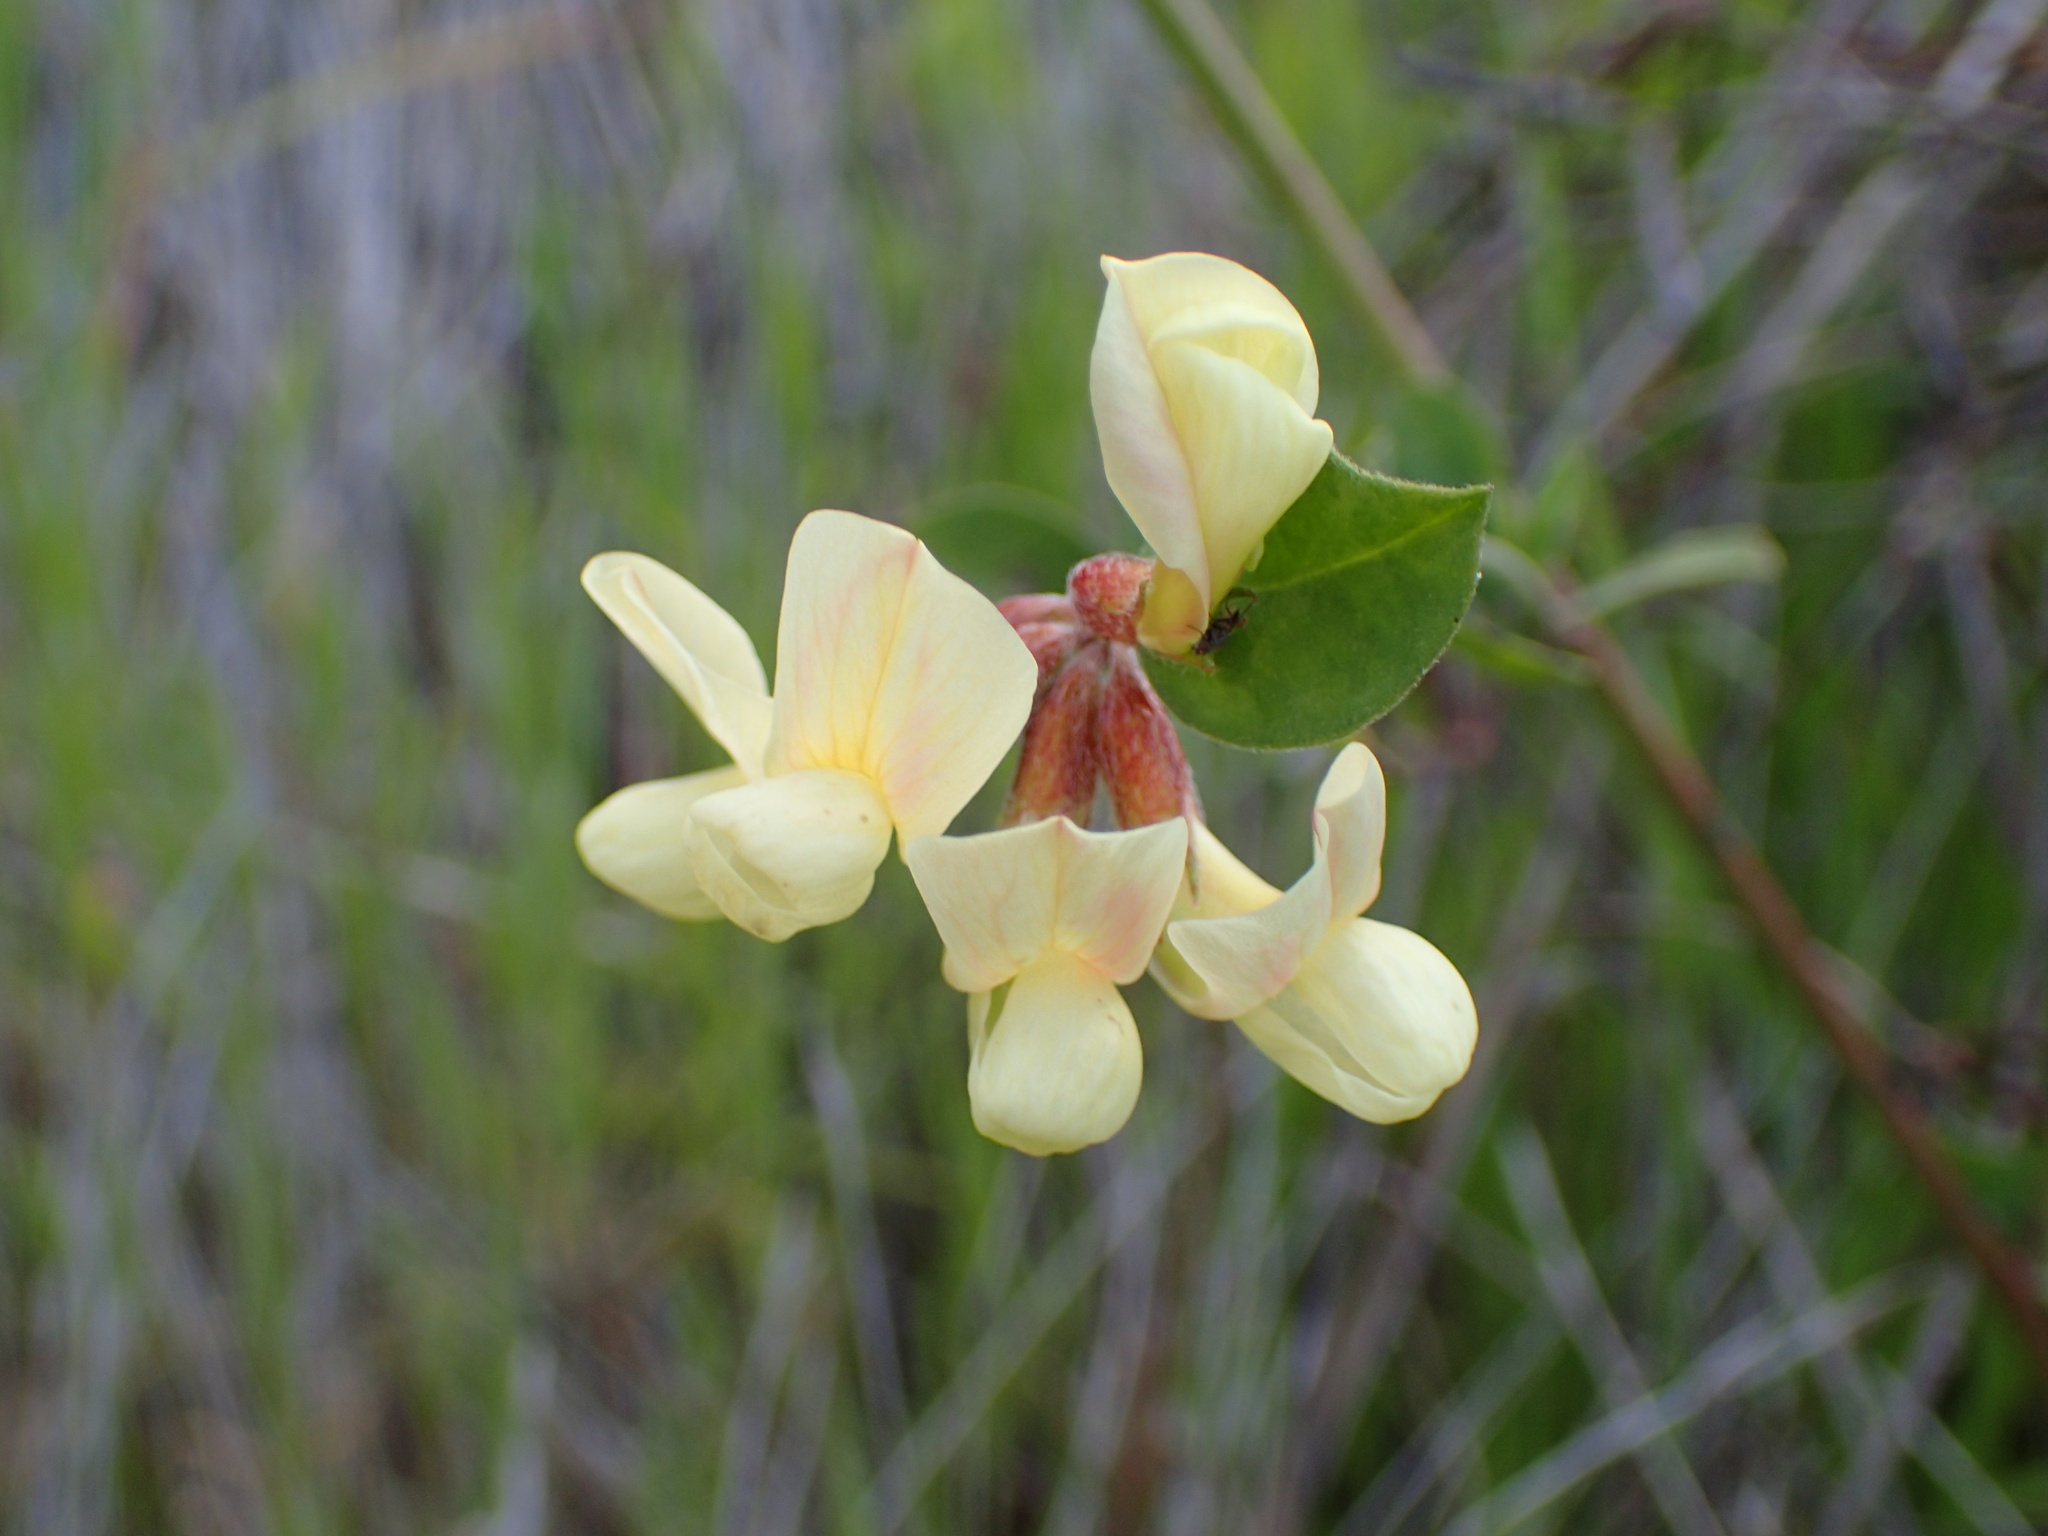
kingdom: Plantae
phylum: Tracheophyta
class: Magnoliopsida
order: Fabales
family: Fabaceae
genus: Acmispon
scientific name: Acmispon grandiflorus
